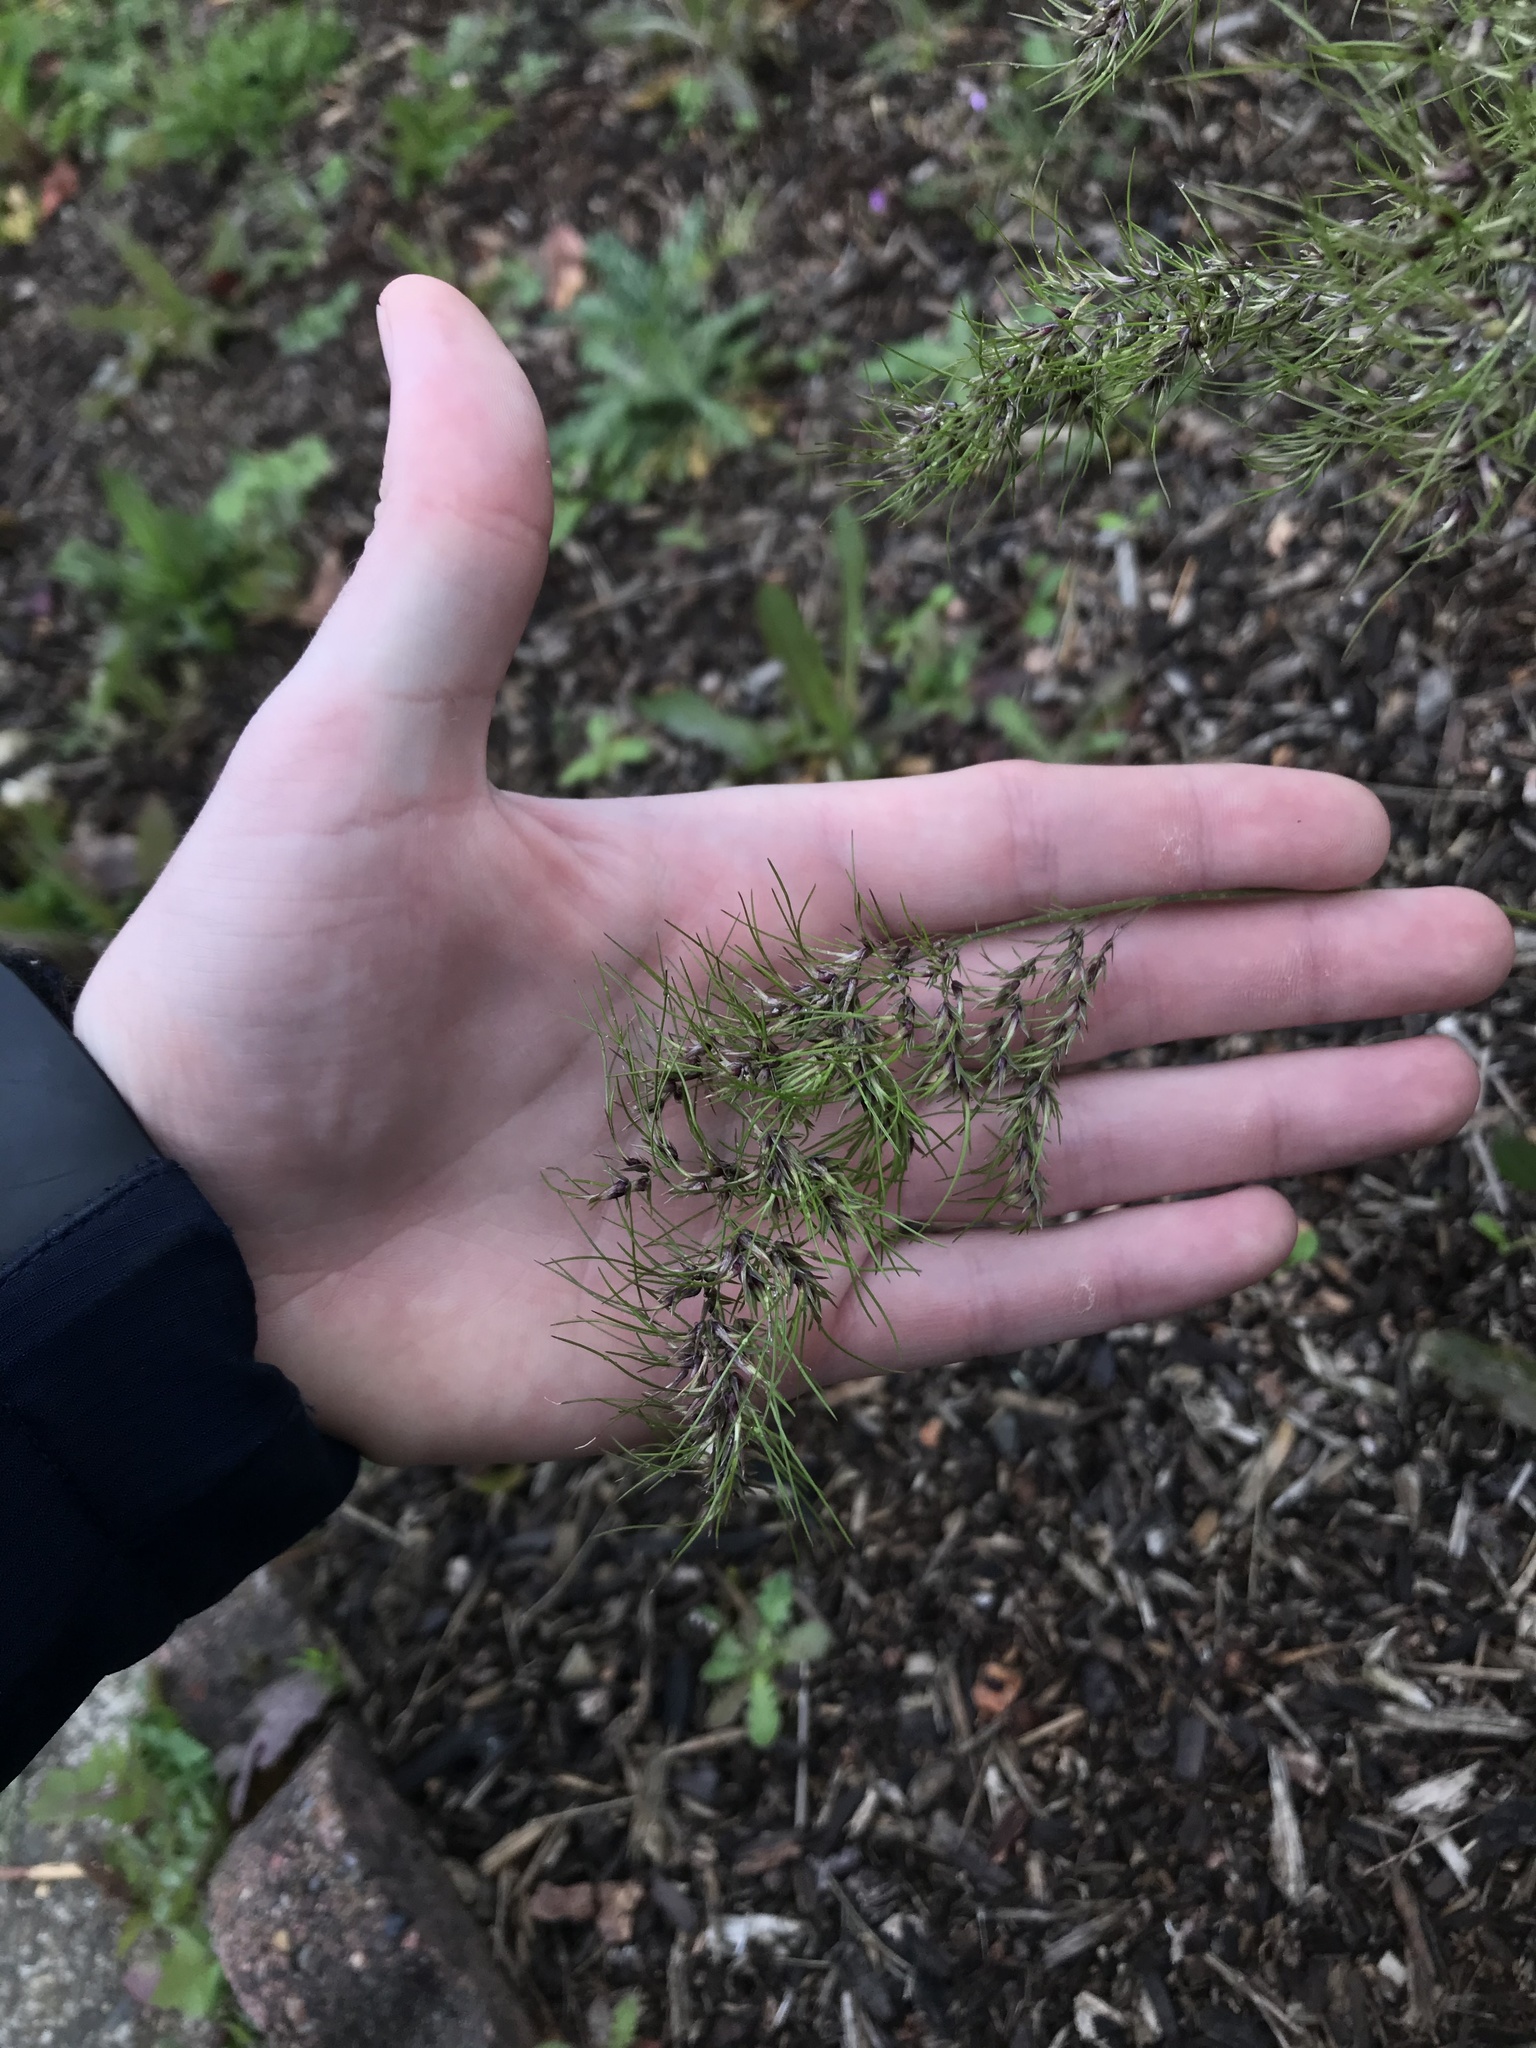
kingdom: Plantae
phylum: Tracheophyta
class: Liliopsida
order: Poales
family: Poaceae
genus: Poa
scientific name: Poa bulbosa
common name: Bulbous bluegrass
